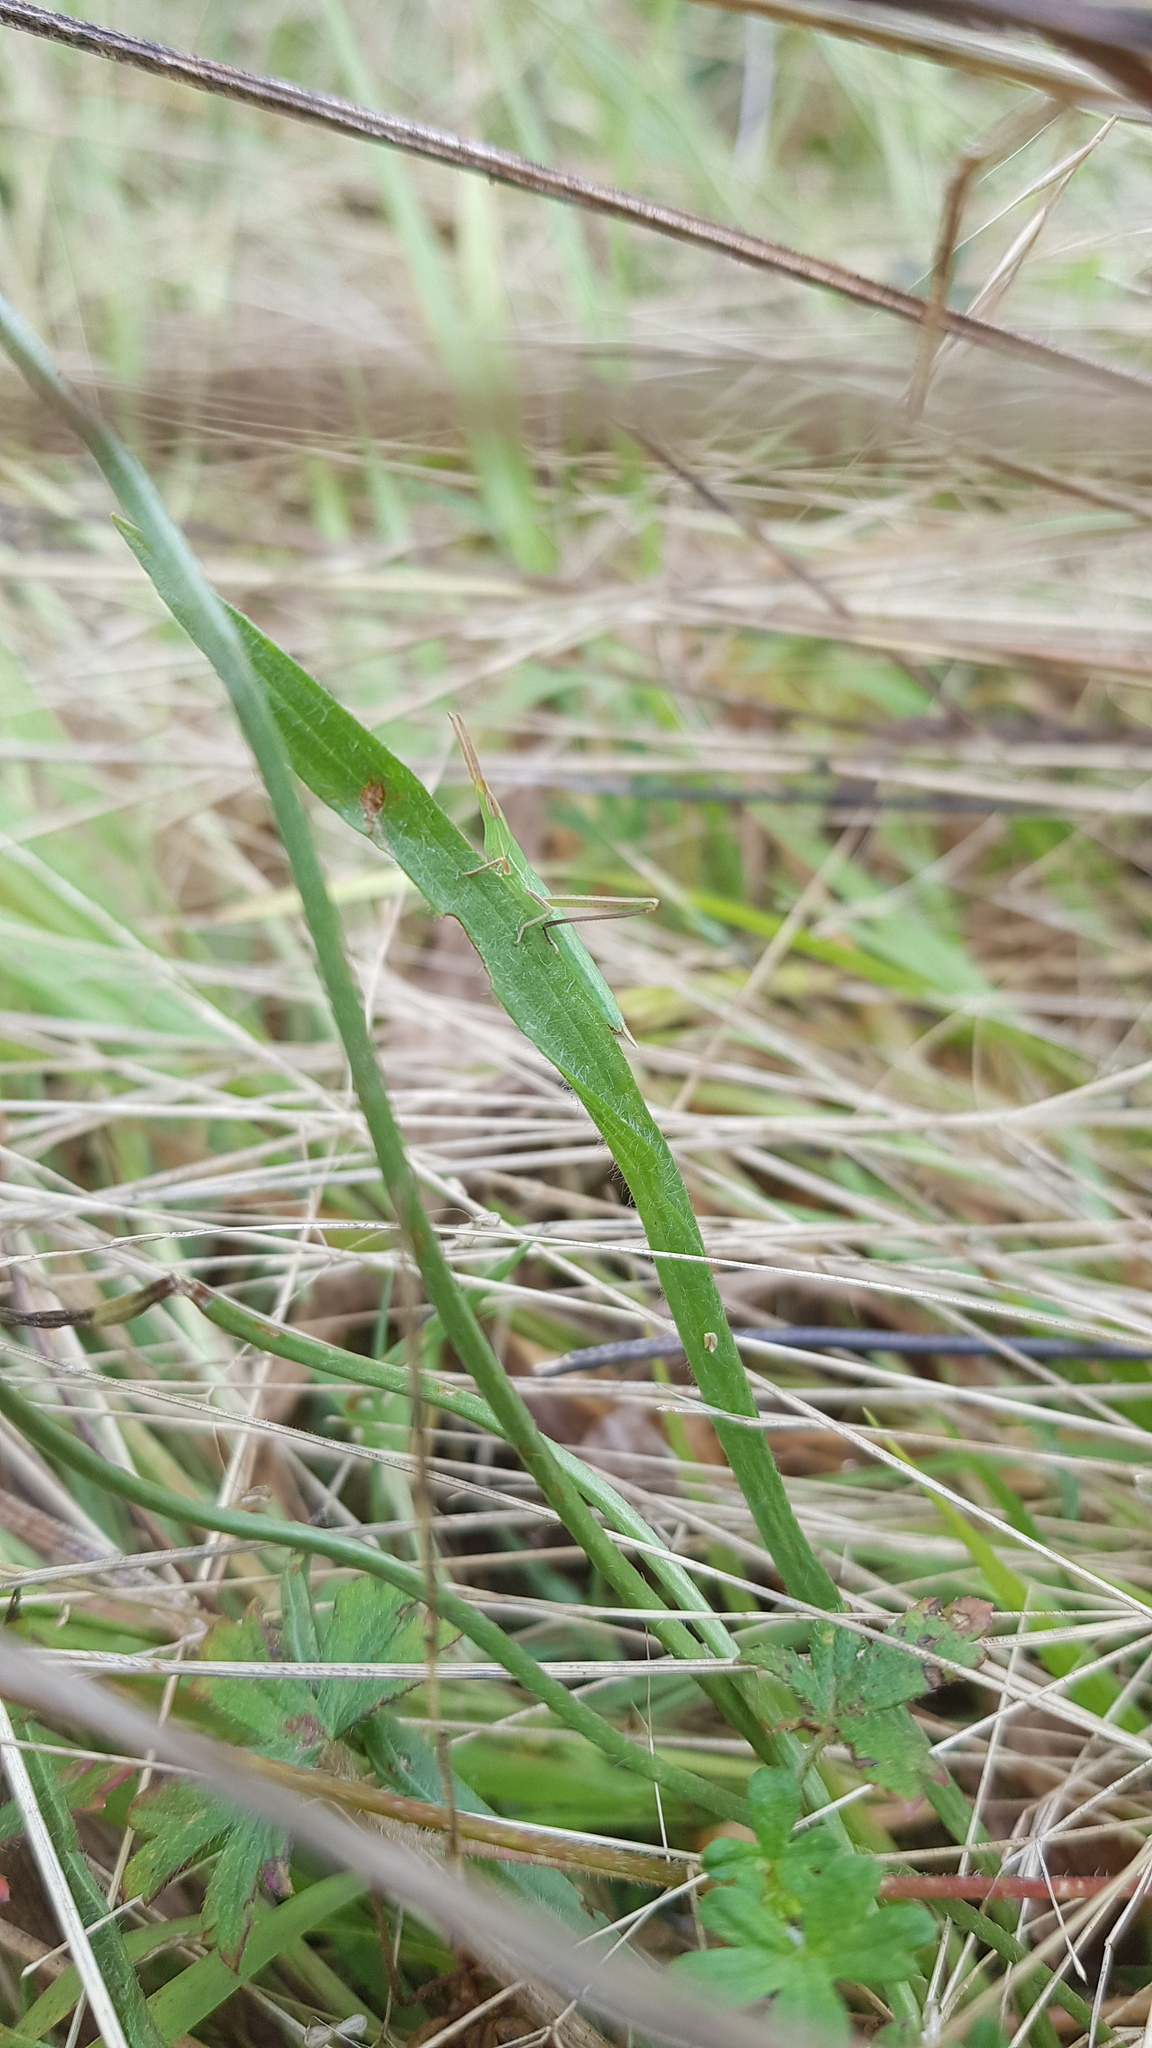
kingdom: Animalia
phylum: Arthropoda
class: Insecta
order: Orthoptera
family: Acrididae
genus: Acrida
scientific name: Acrida conica
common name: Giant green slantface
